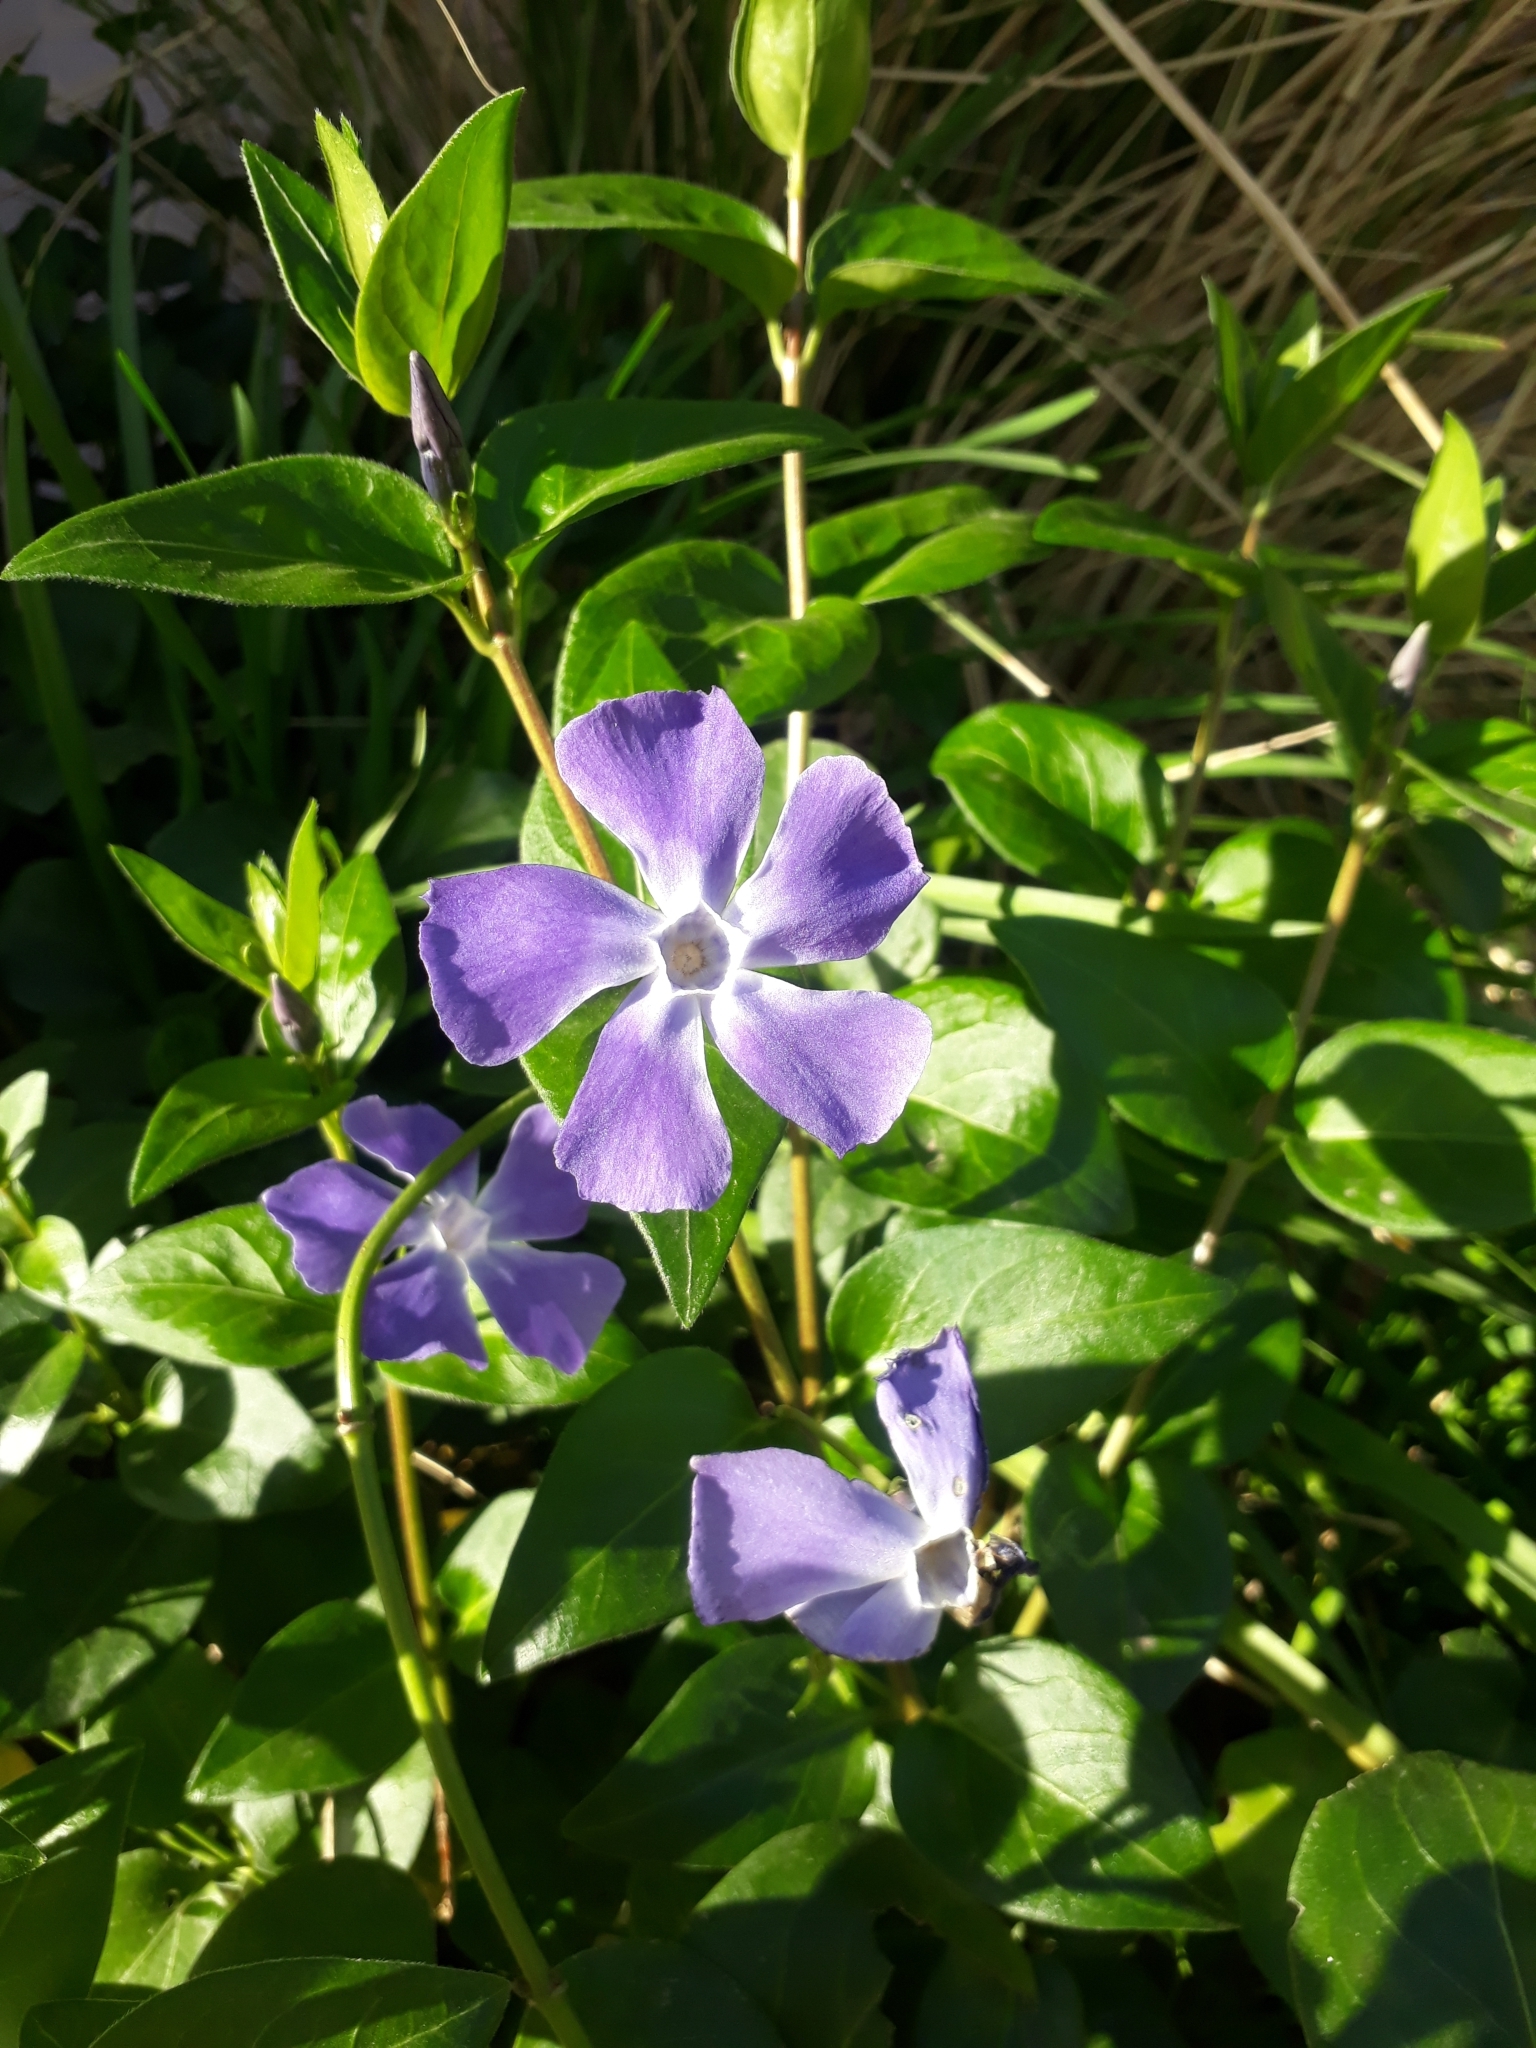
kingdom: Plantae
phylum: Tracheophyta
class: Magnoliopsida
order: Gentianales
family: Apocynaceae
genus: Vinca
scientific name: Vinca major
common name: Greater periwinkle
